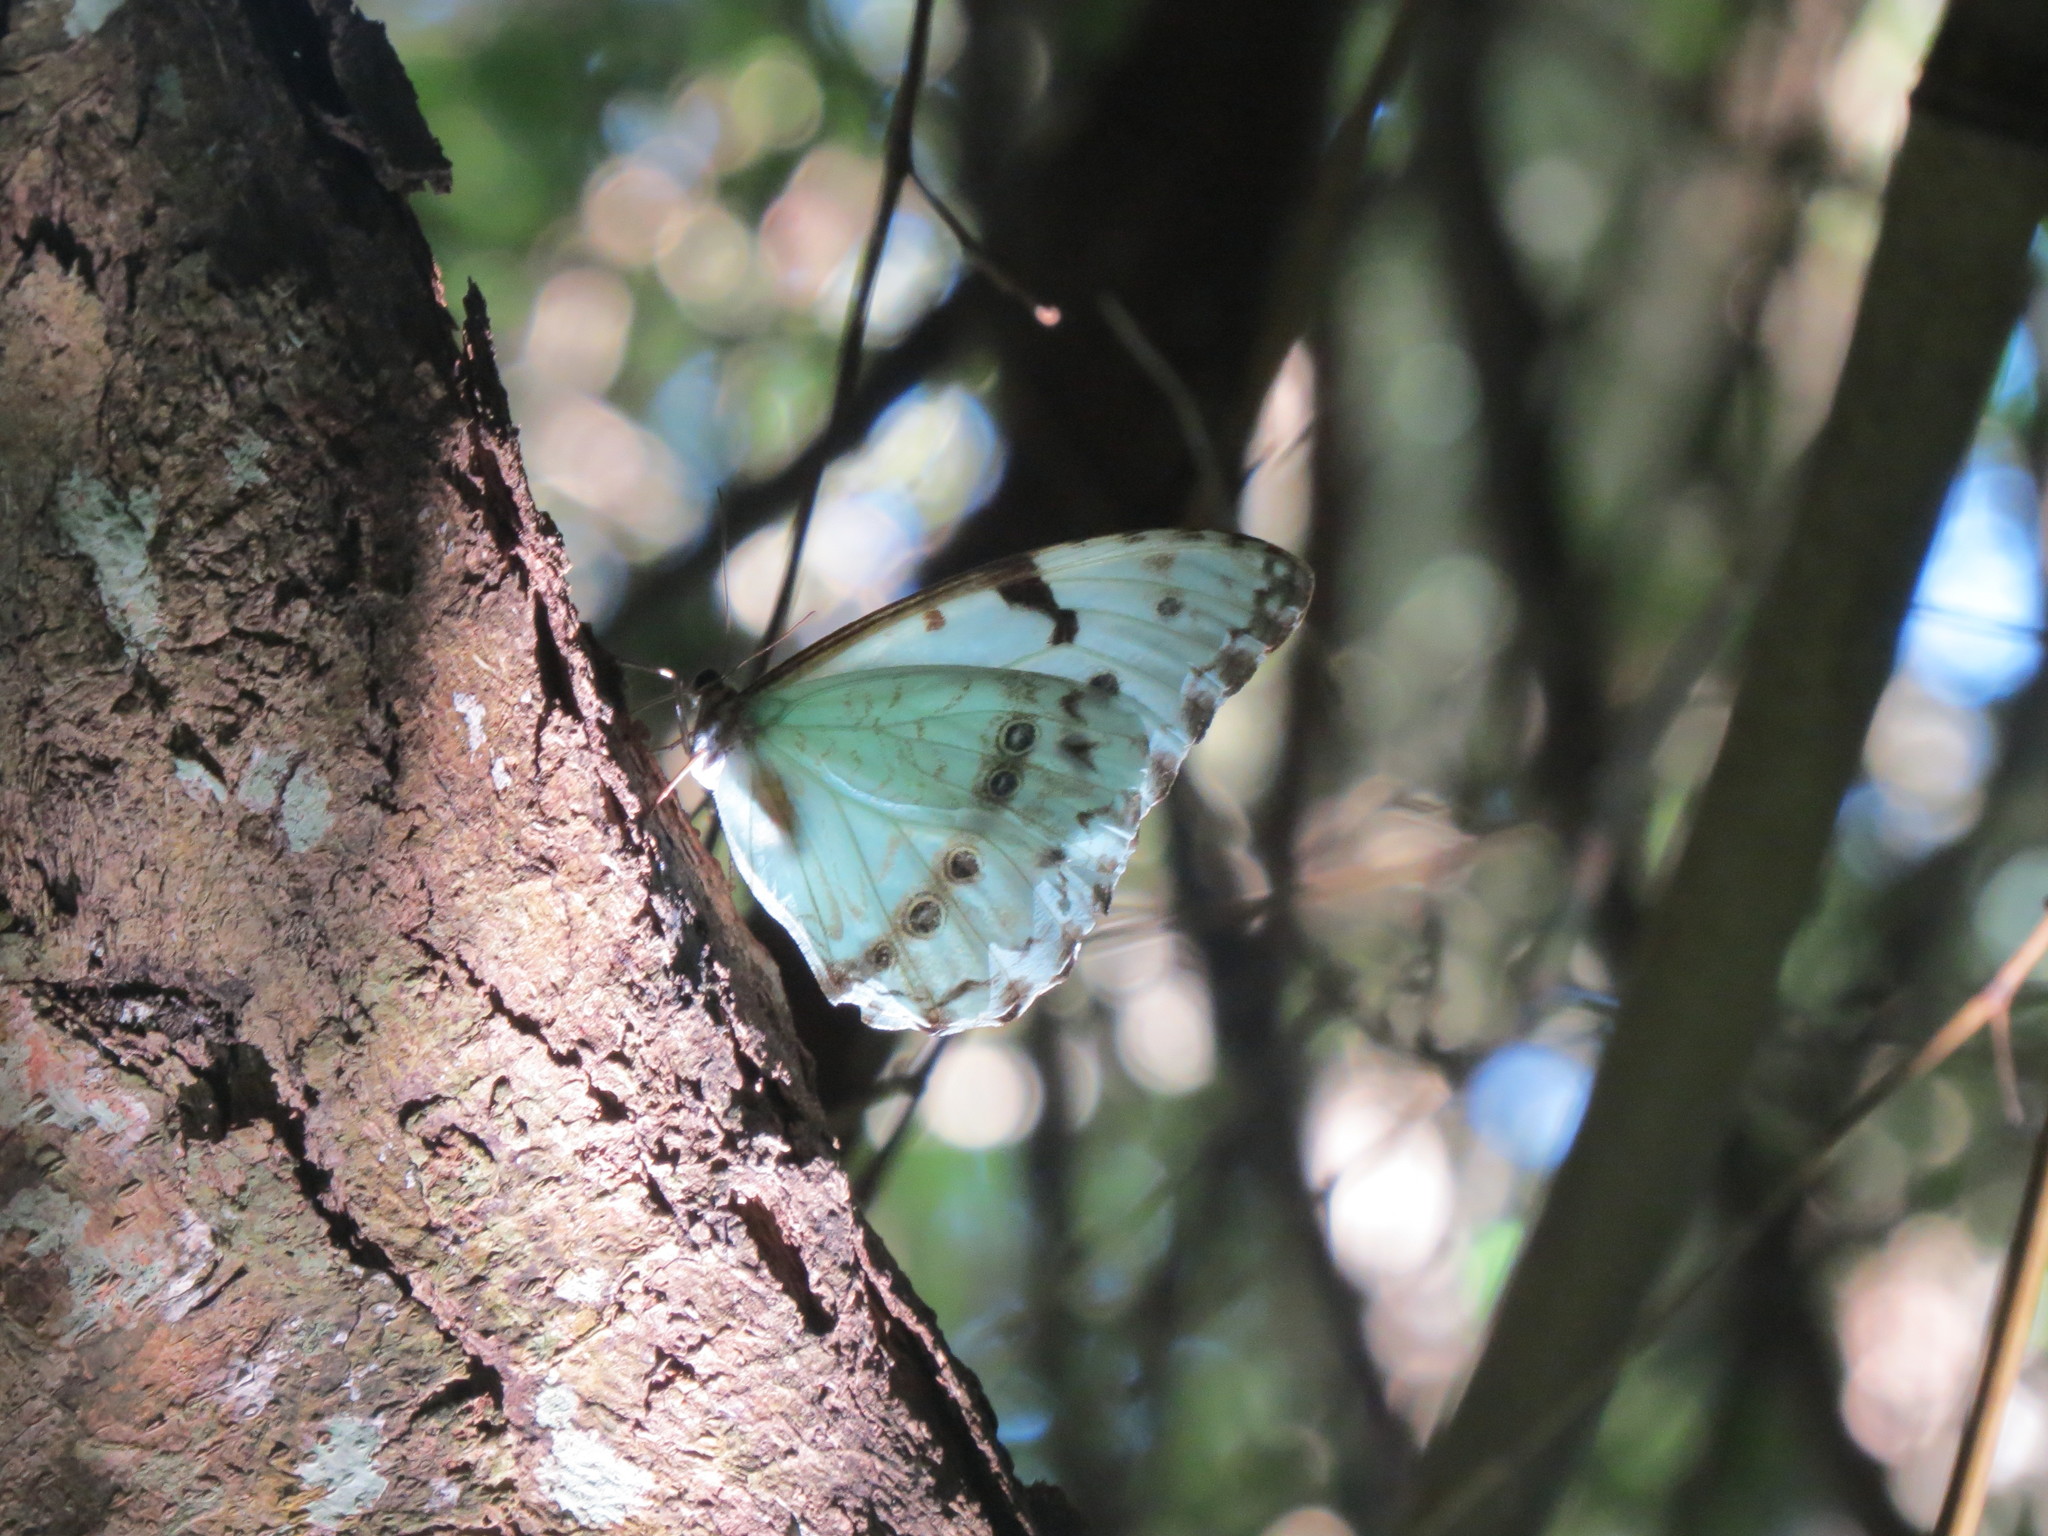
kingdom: Animalia
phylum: Arthropoda
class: Insecta
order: Lepidoptera
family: Nymphalidae
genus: Morpho
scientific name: Morpho epistrophus
